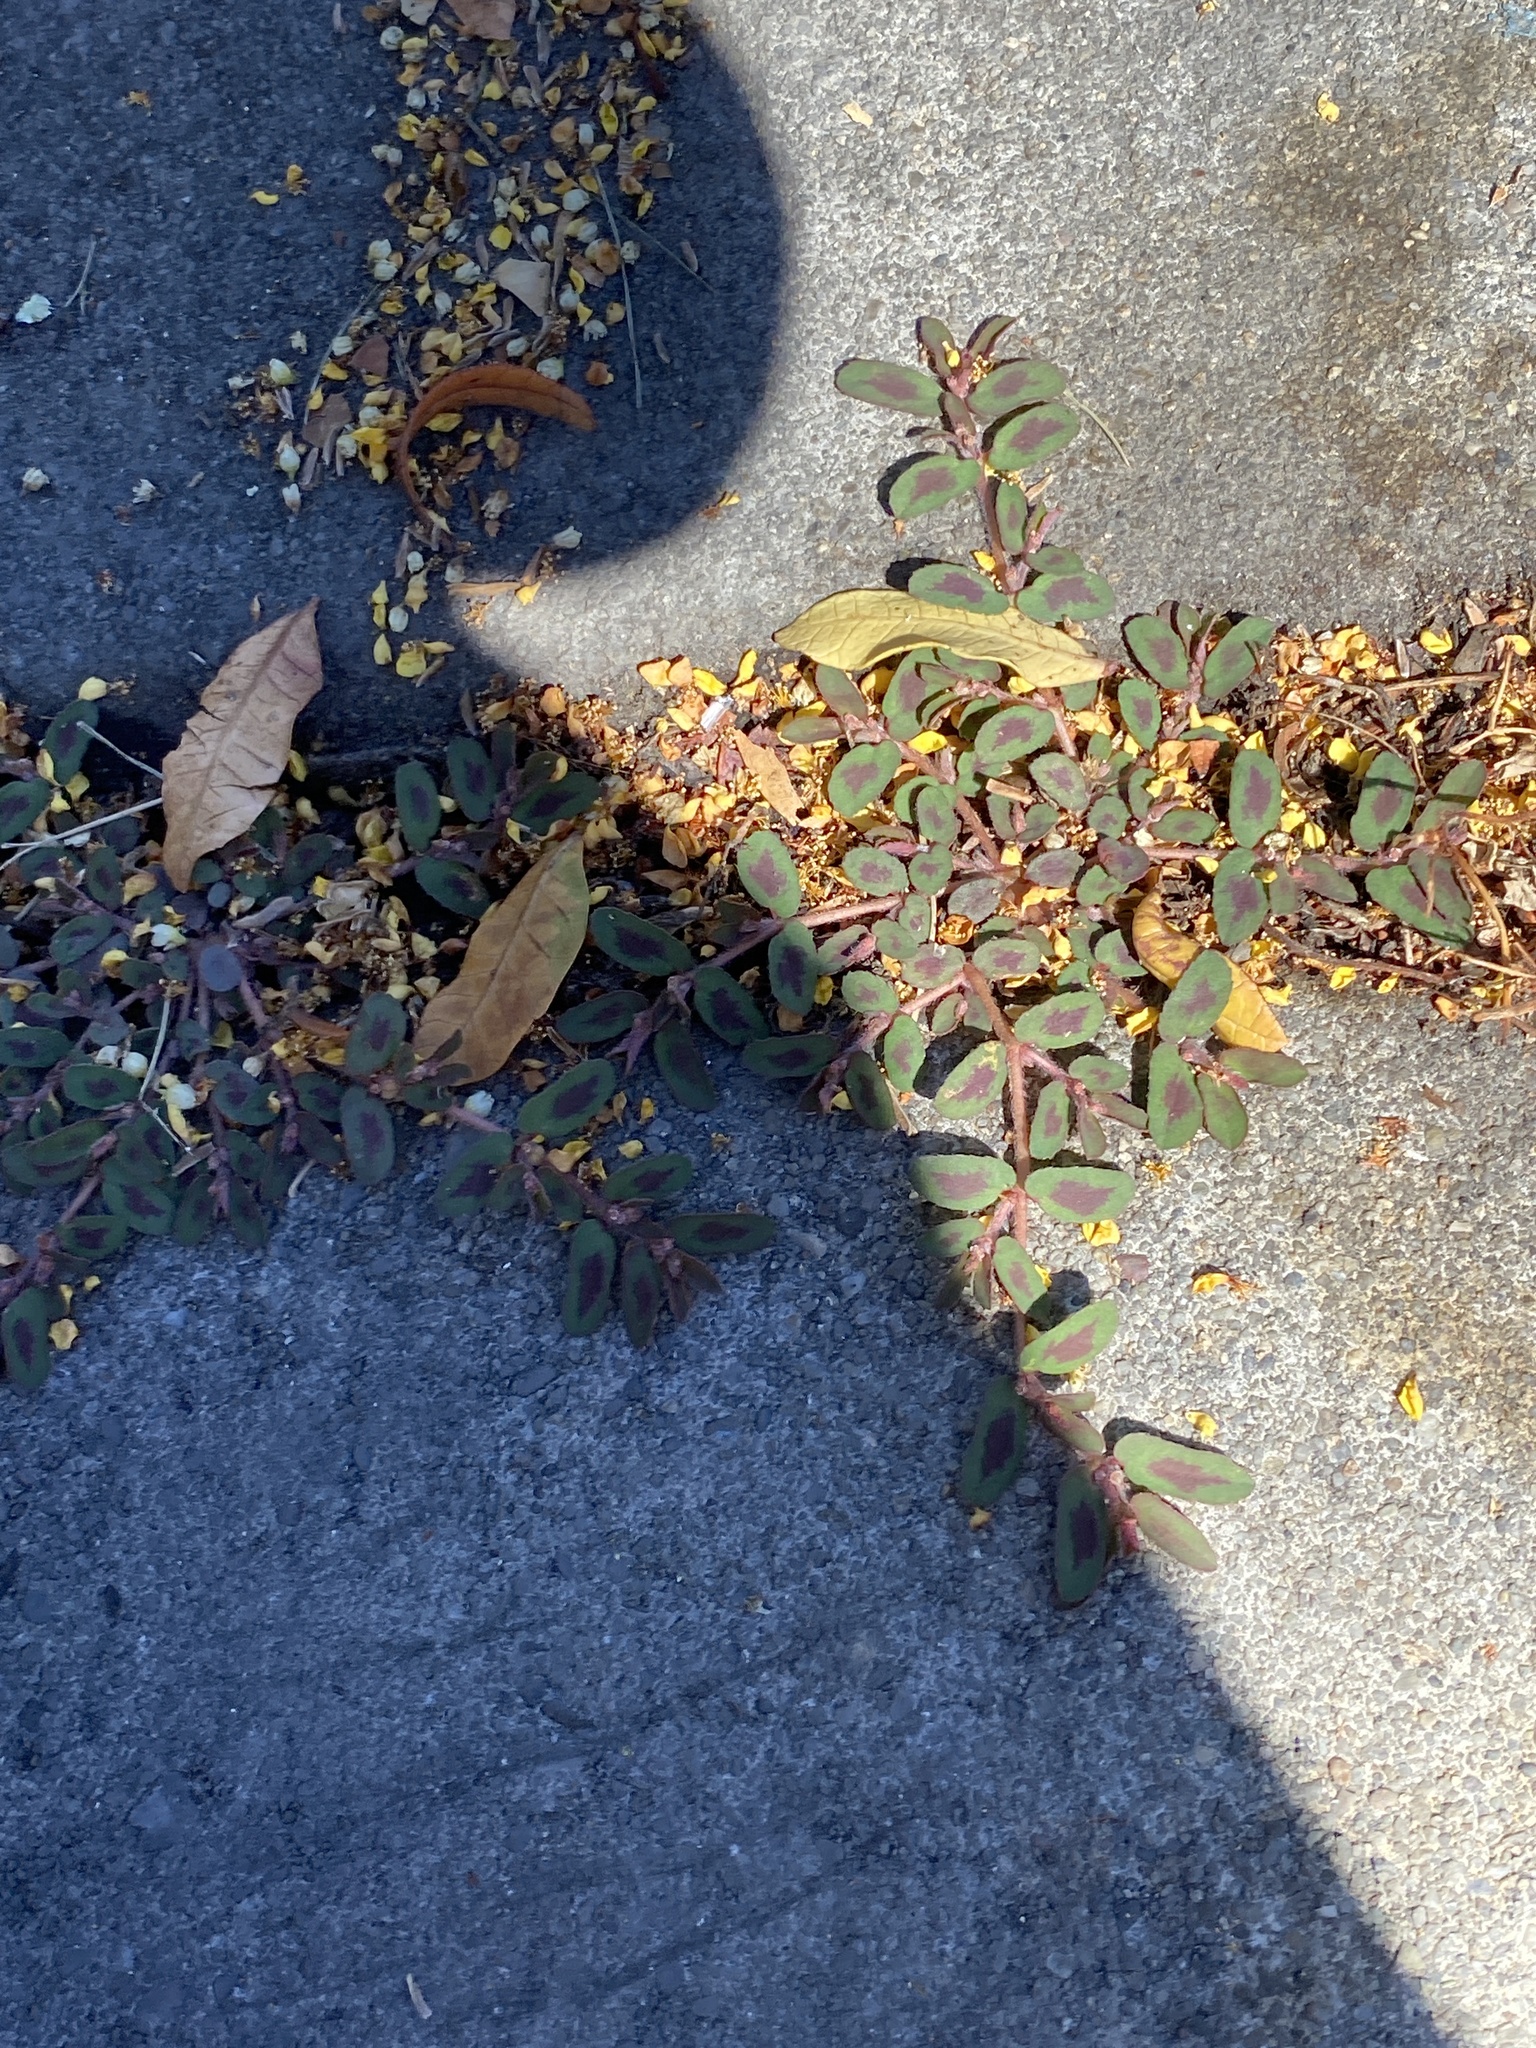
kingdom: Plantae
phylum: Tracheophyta
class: Magnoliopsida
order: Malpighiales
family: Euphorbiaceae
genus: Euphorbia
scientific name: Euphorbia maculata
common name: Spotted spurge
